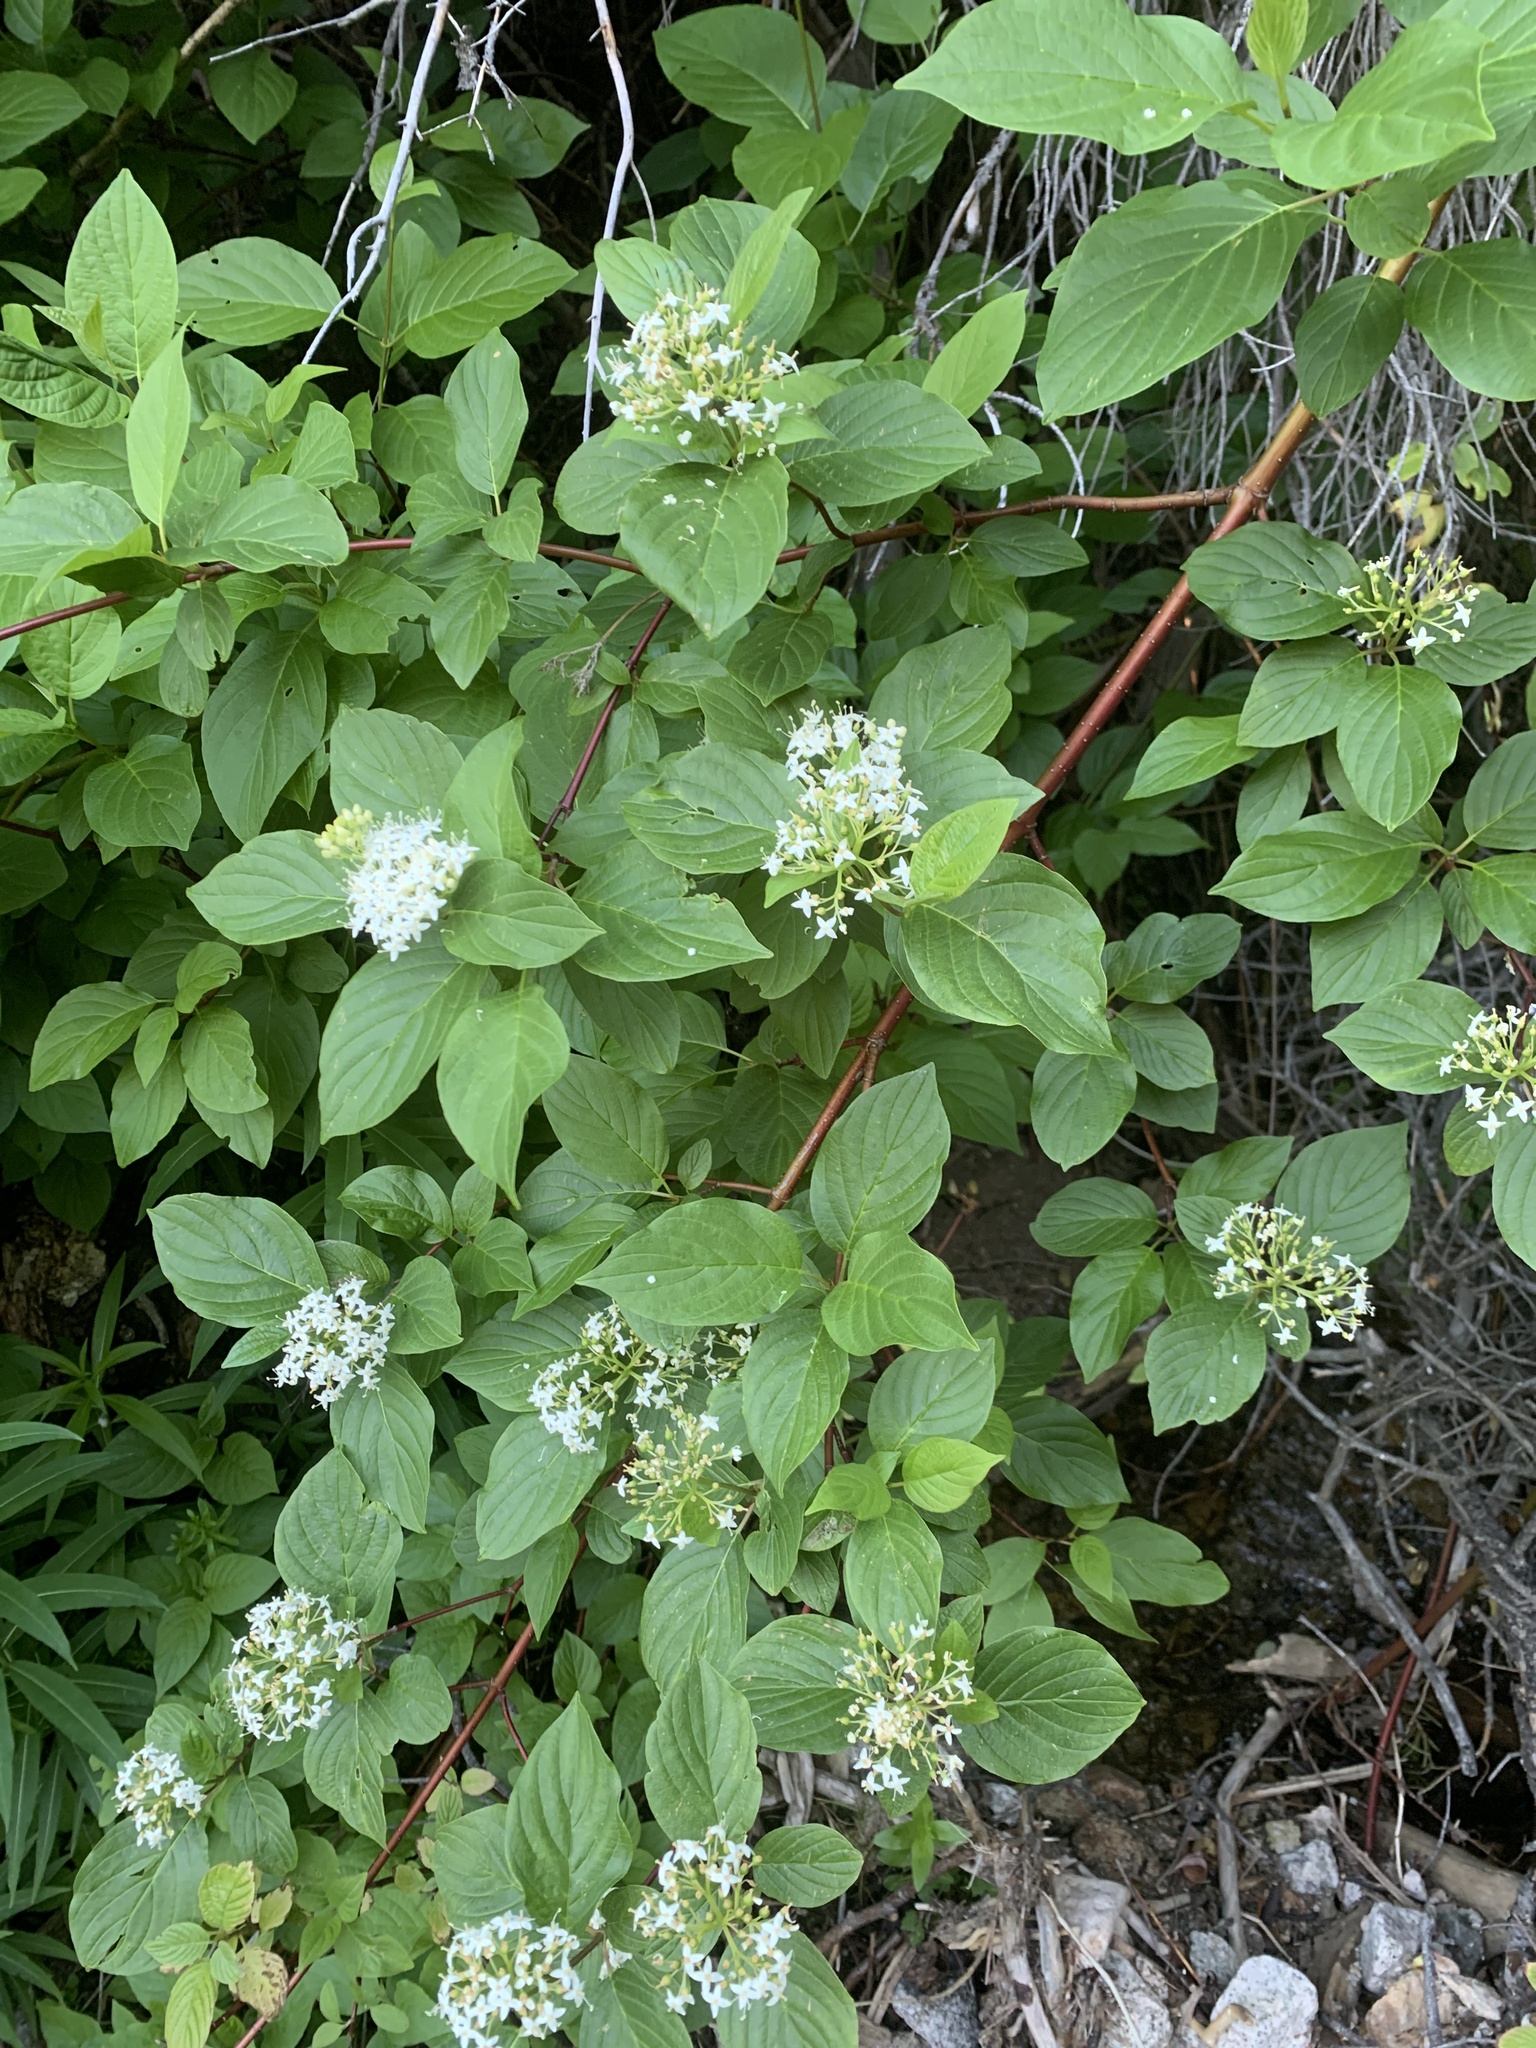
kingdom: Plantae
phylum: Tracheophyta
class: Magnoliopsida
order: Cornales
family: Cornaceae
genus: Cornus
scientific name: Cornus sericea
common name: Red-osier dogwood
